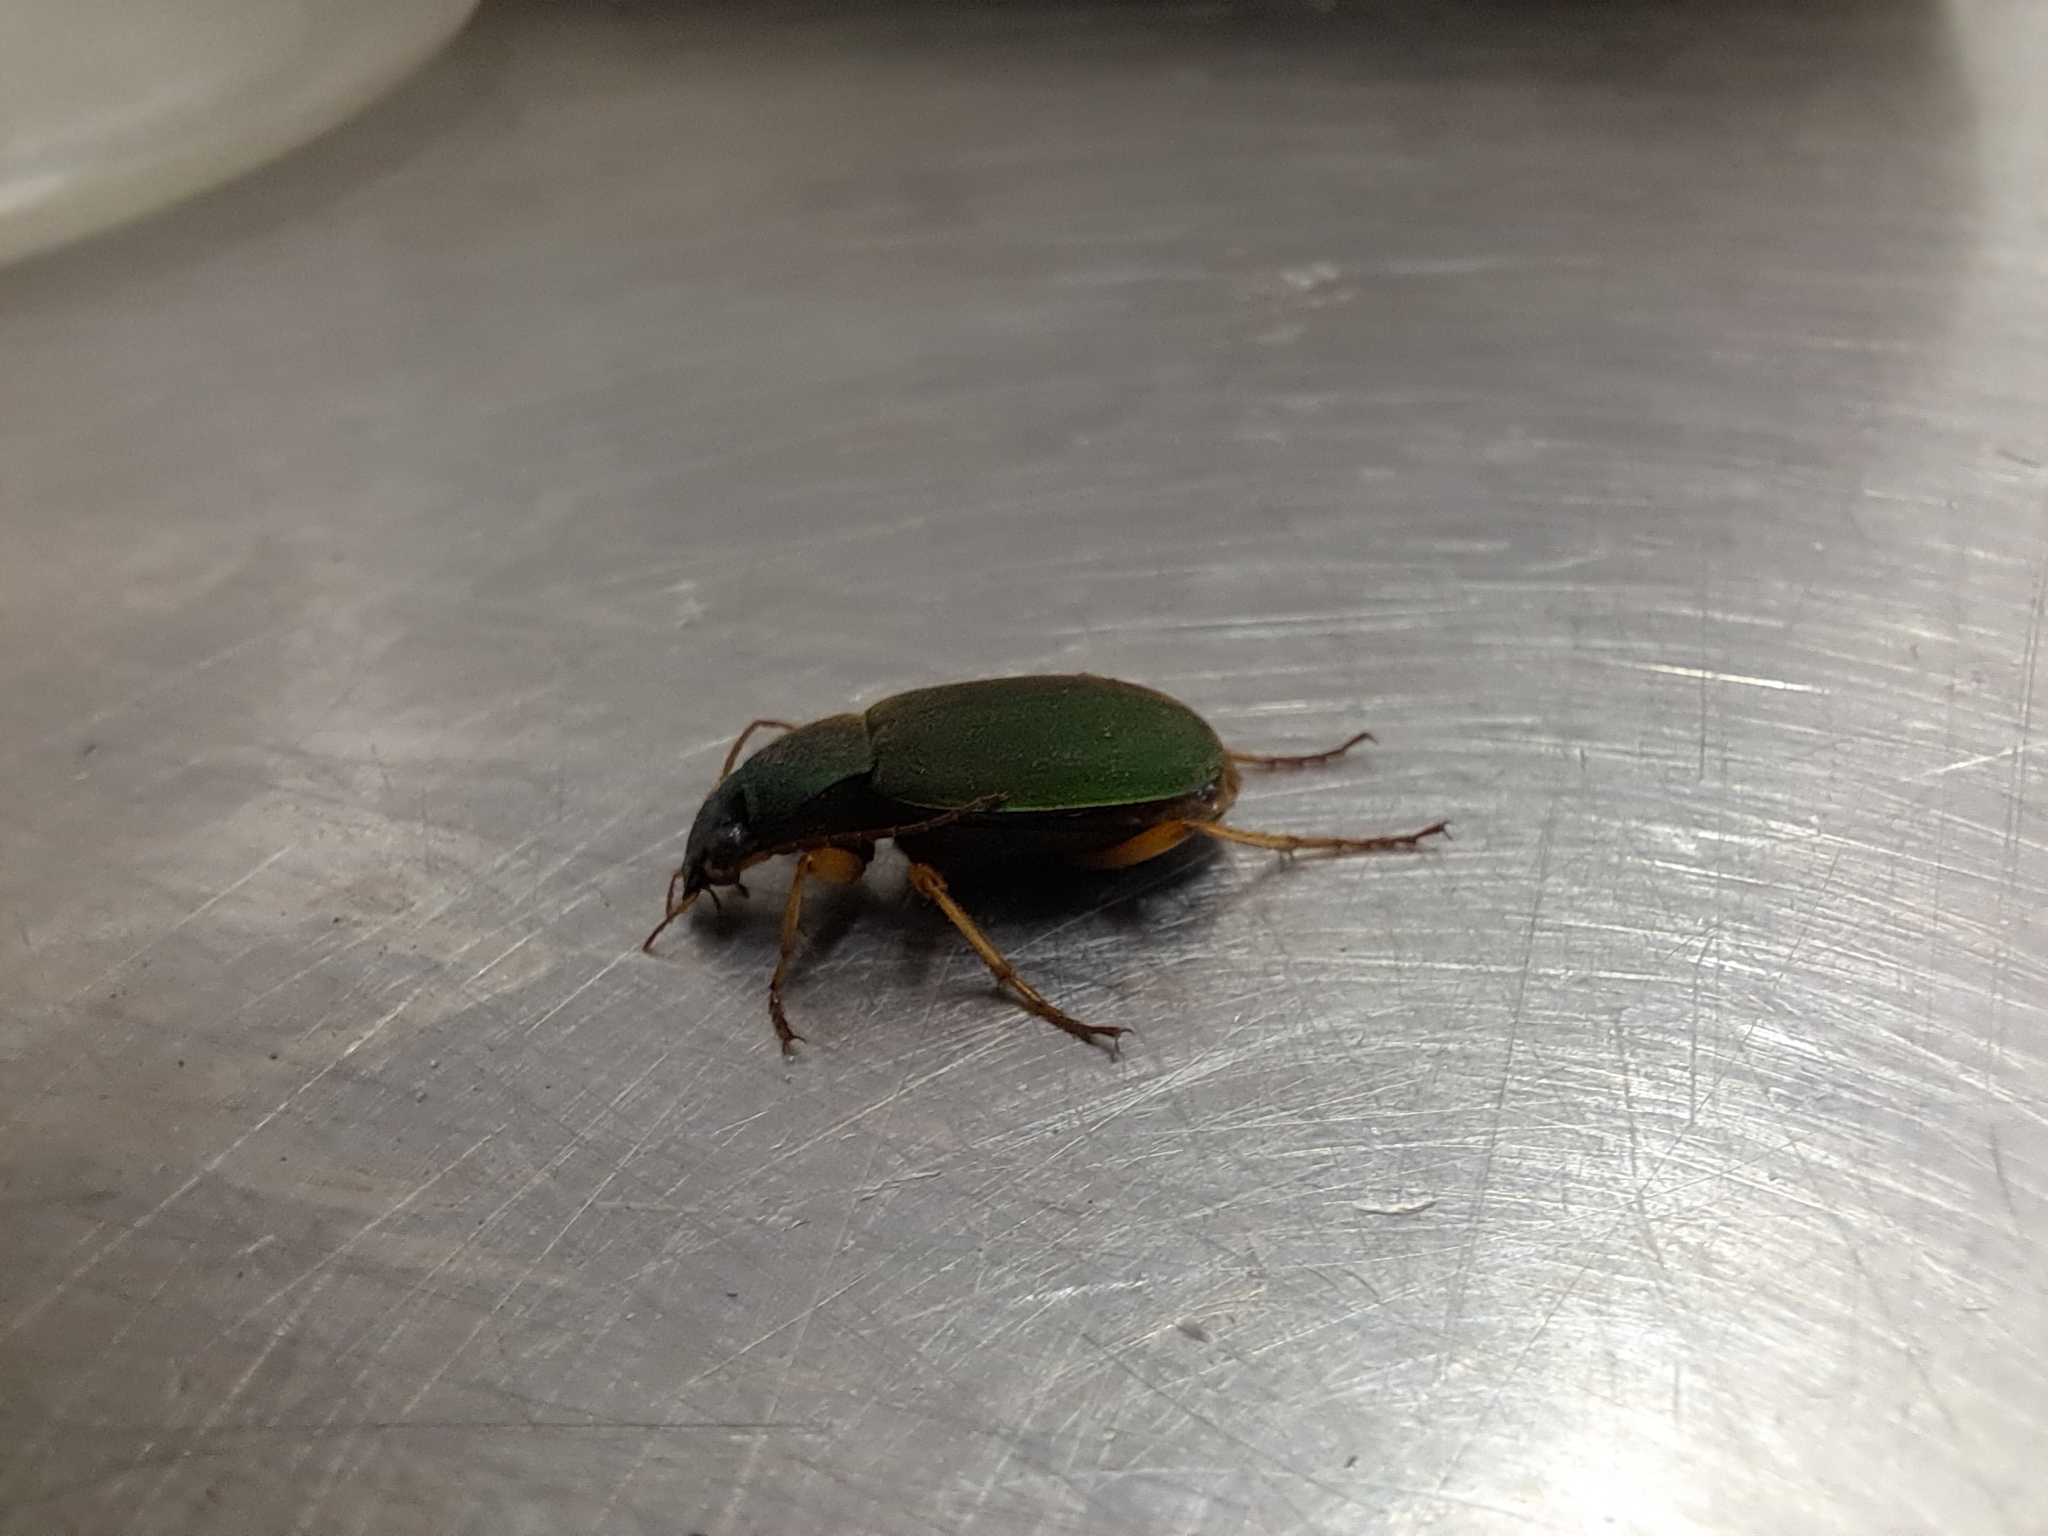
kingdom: Animalia
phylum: Arthropoda
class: Insecta
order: Coleoptera
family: Carabidae
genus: Chlaenius
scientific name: Chlaenius sericeus
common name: Green pubescent ground beetle
